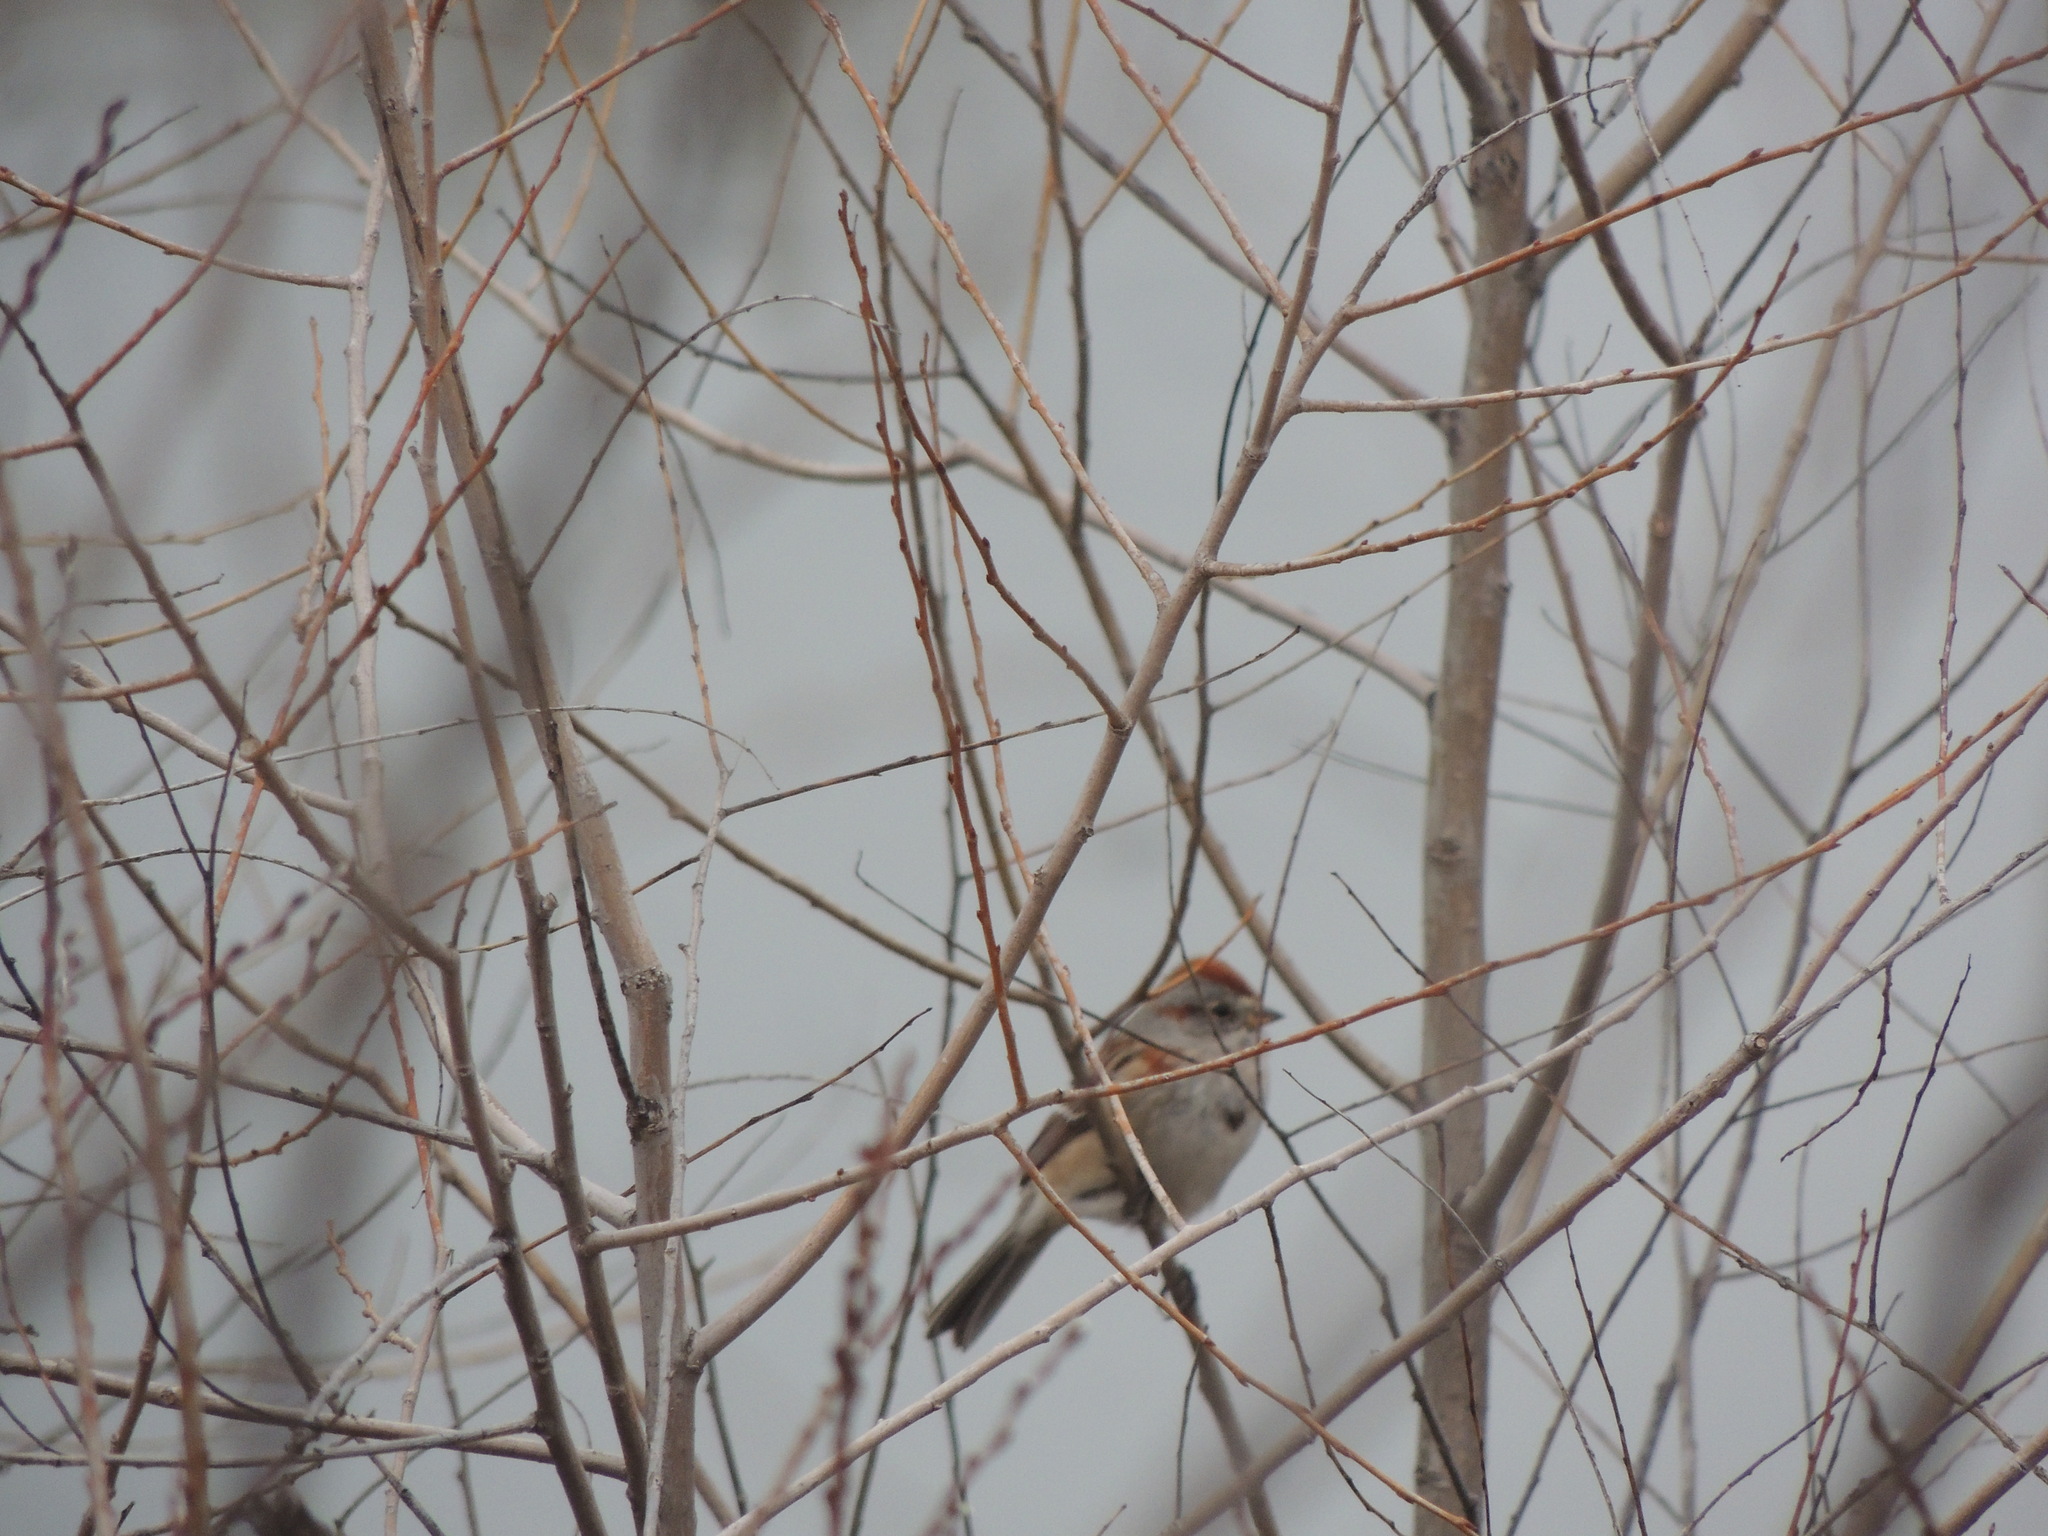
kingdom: Animalia
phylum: Chordata
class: Aves
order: Passeriformes
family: Passerellidae
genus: Spizelloides
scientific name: Spizelloides arborea
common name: American tree sparrow
